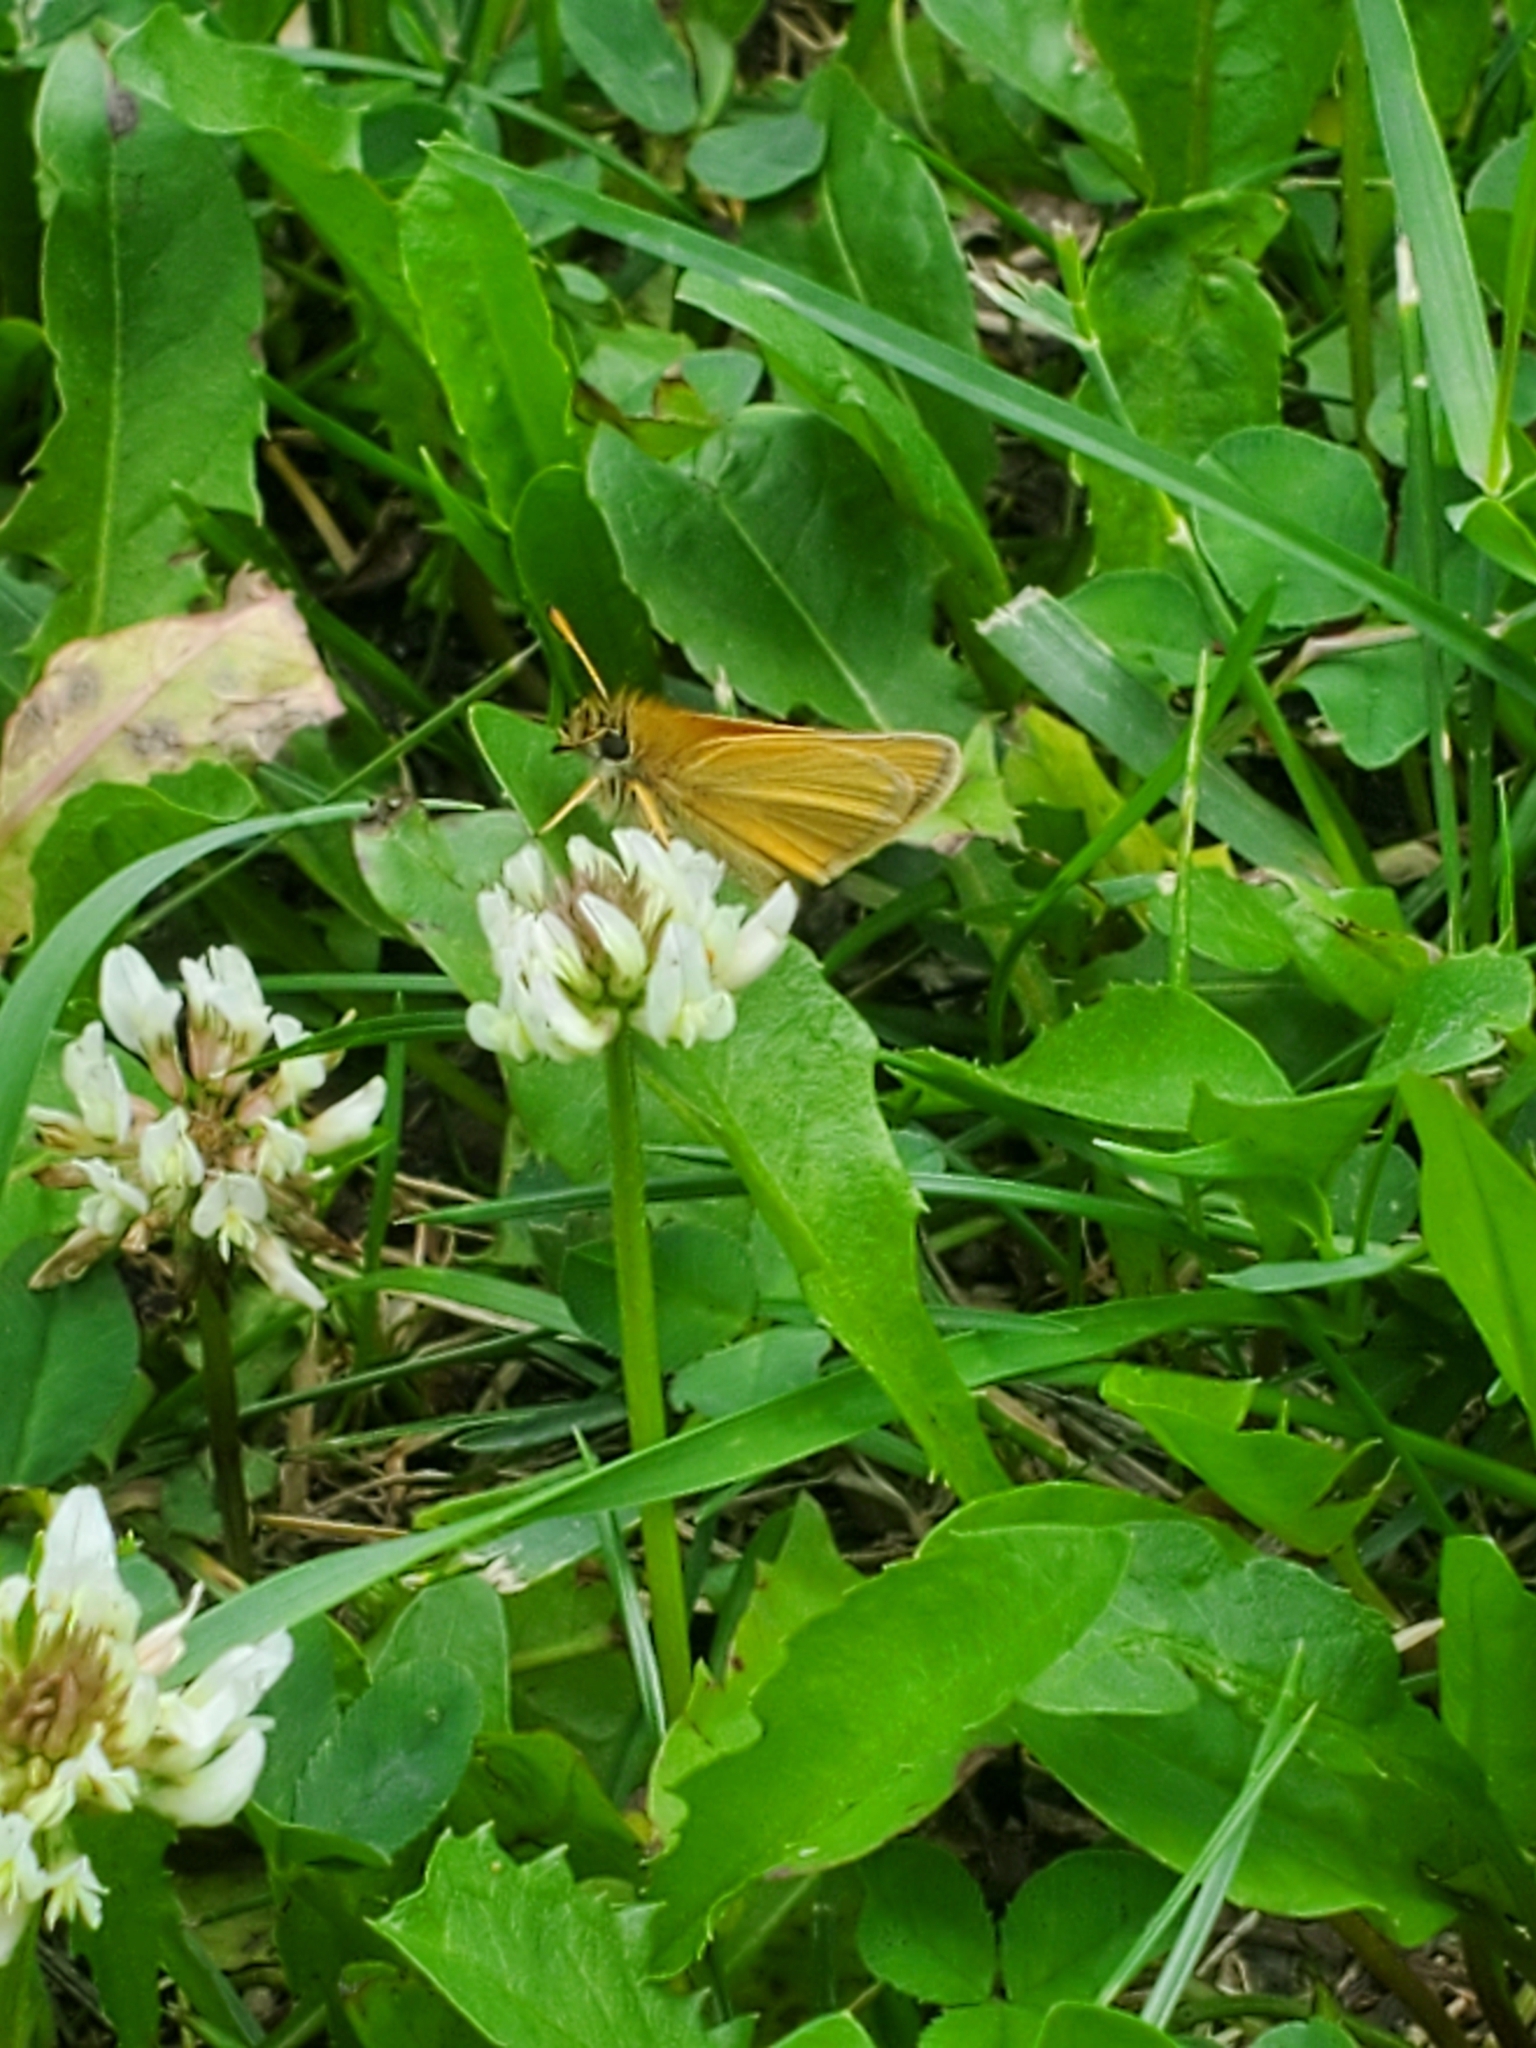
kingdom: Animalia
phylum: Arthropoda
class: Insecta
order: Lepidoptera
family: Hesperiidae
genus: Thymelicus
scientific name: Thymelicus lineola
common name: Essex skipper
